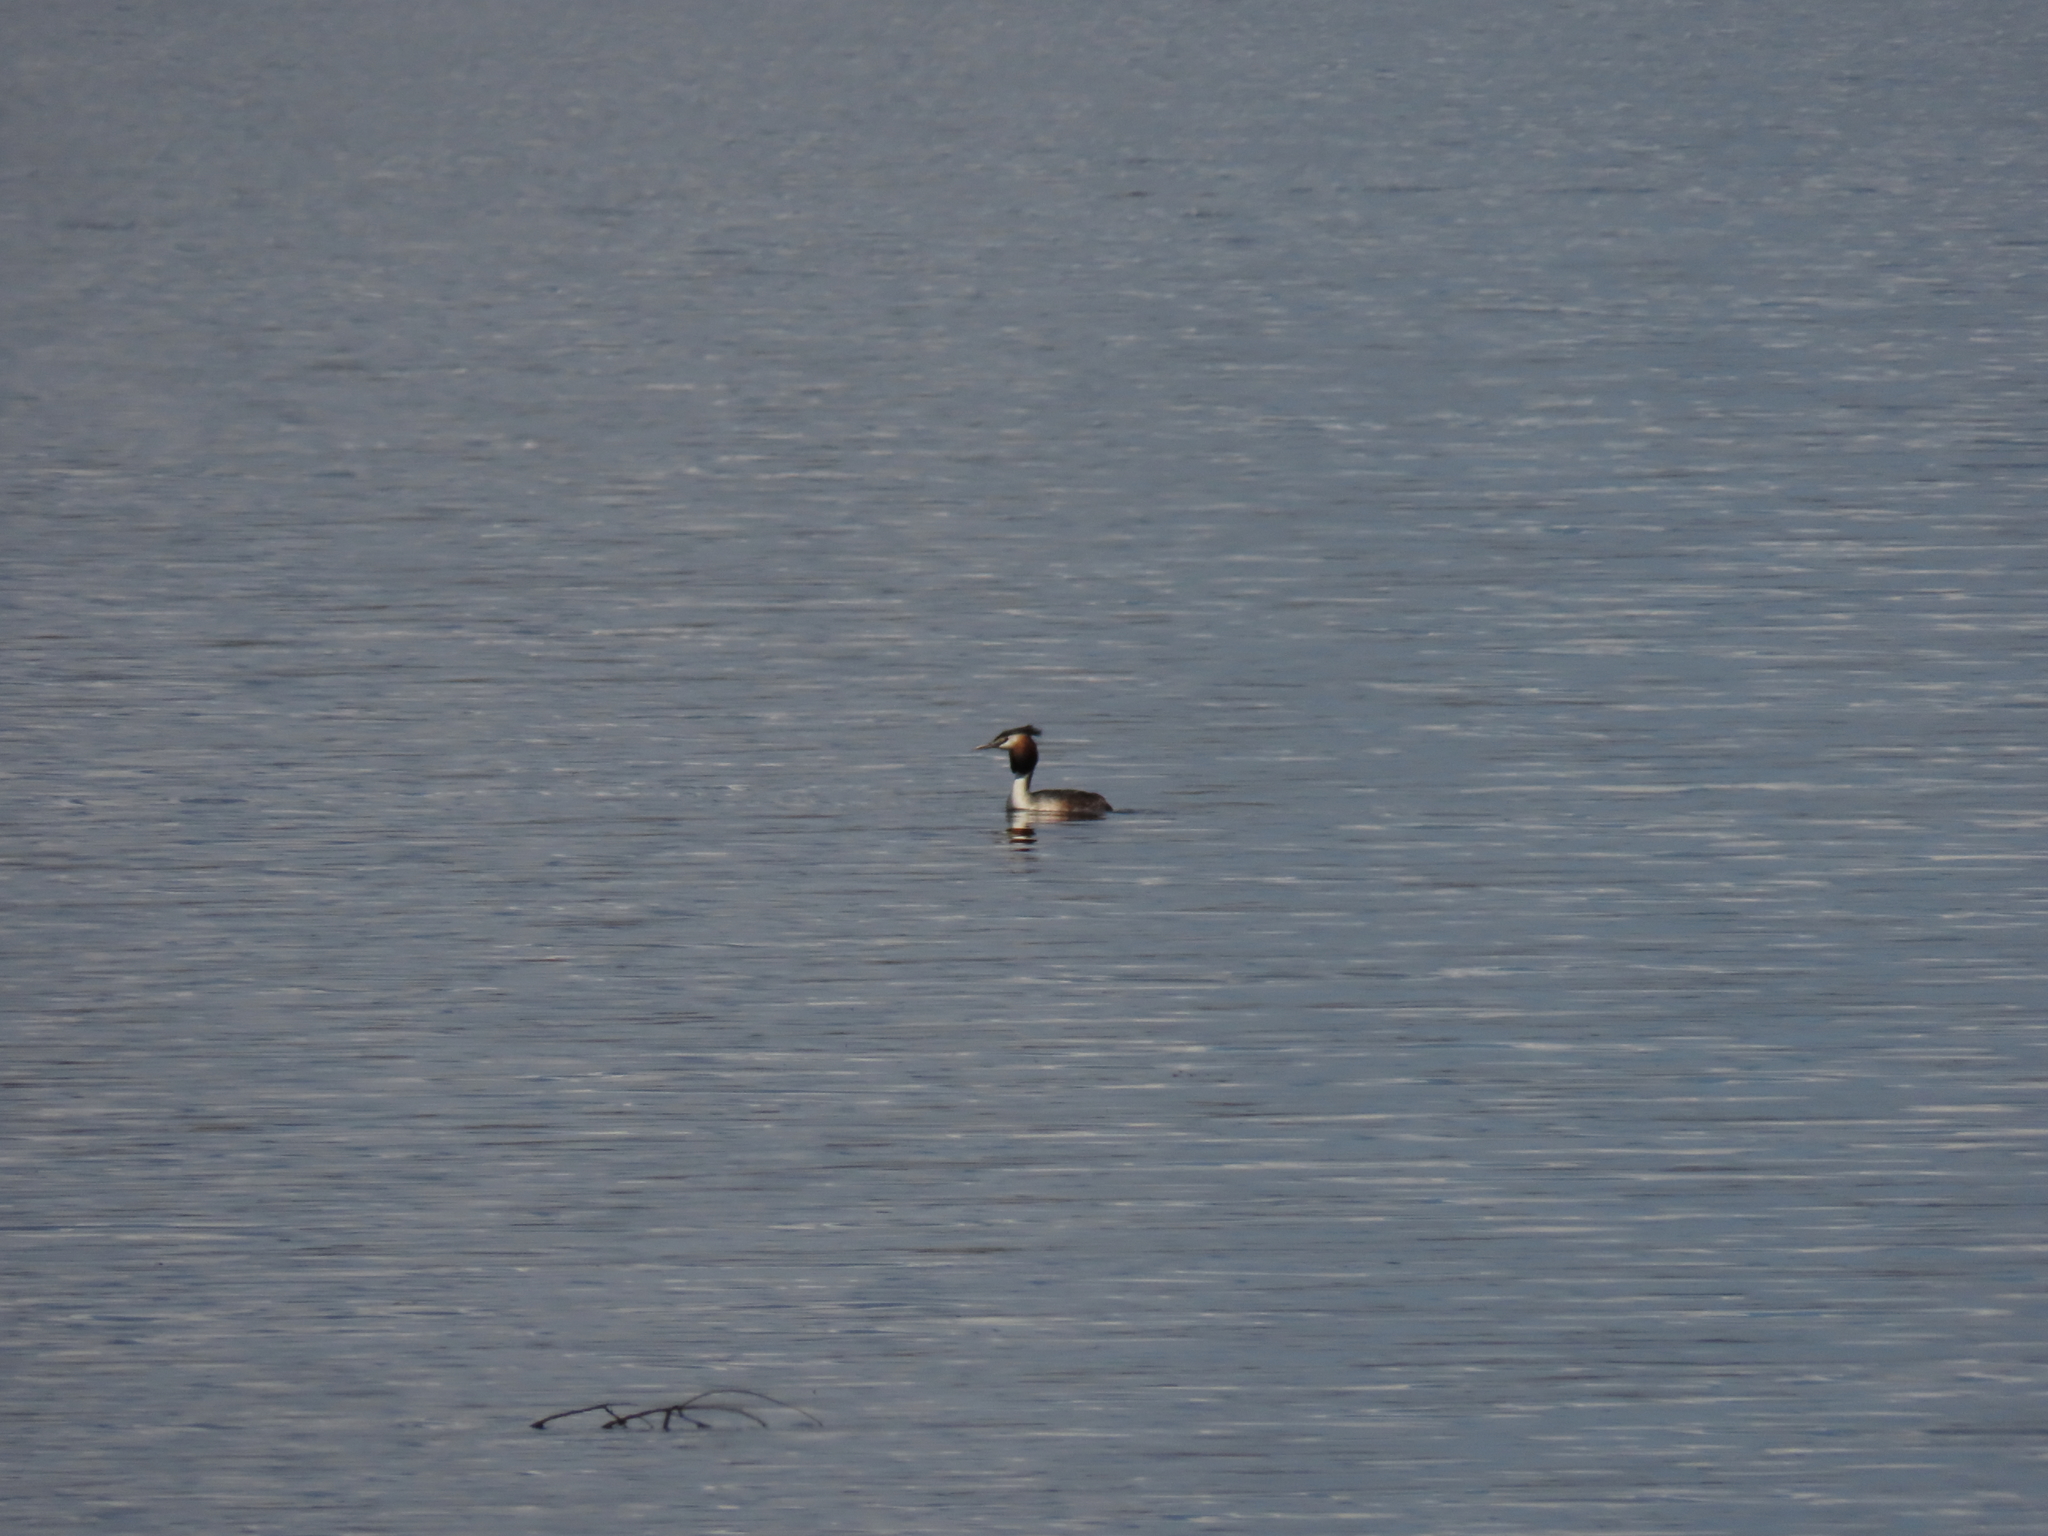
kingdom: Animalia
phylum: Chordata
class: Aves
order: Podicipediformes
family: Podicipedidae
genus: Podiceps
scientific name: Podiceps cristatus
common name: Great crested grebe
